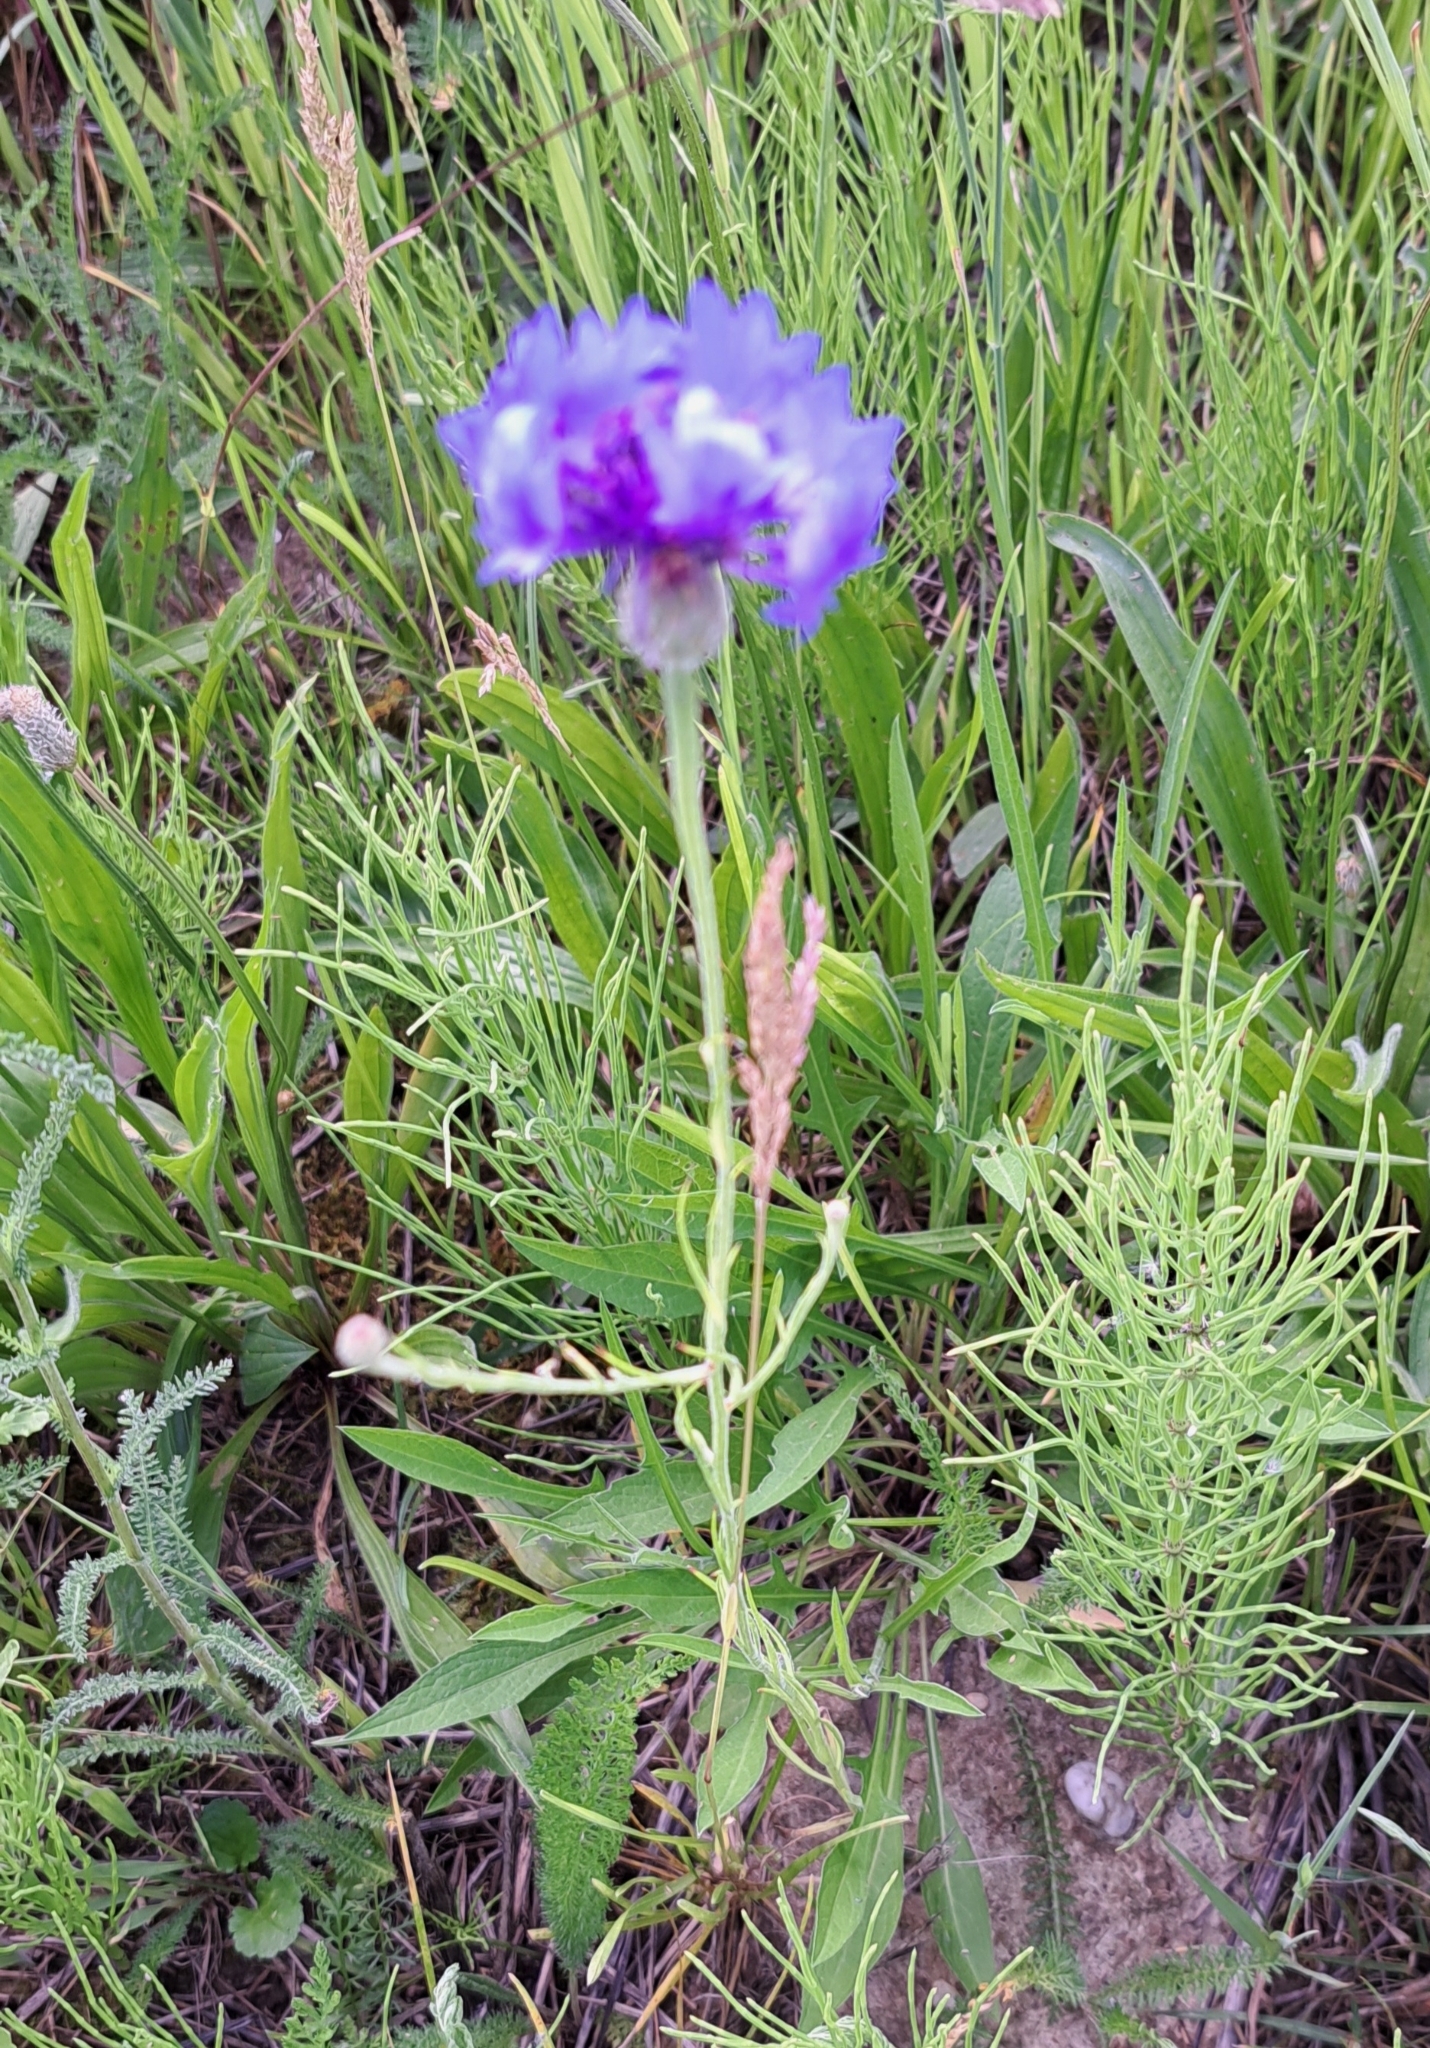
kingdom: Plantae
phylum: Tracheophyta
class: Magnoliopsida
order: Asterales
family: Asteraceae
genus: Centaurea
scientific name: Centaurea cyanus
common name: Cornflower
